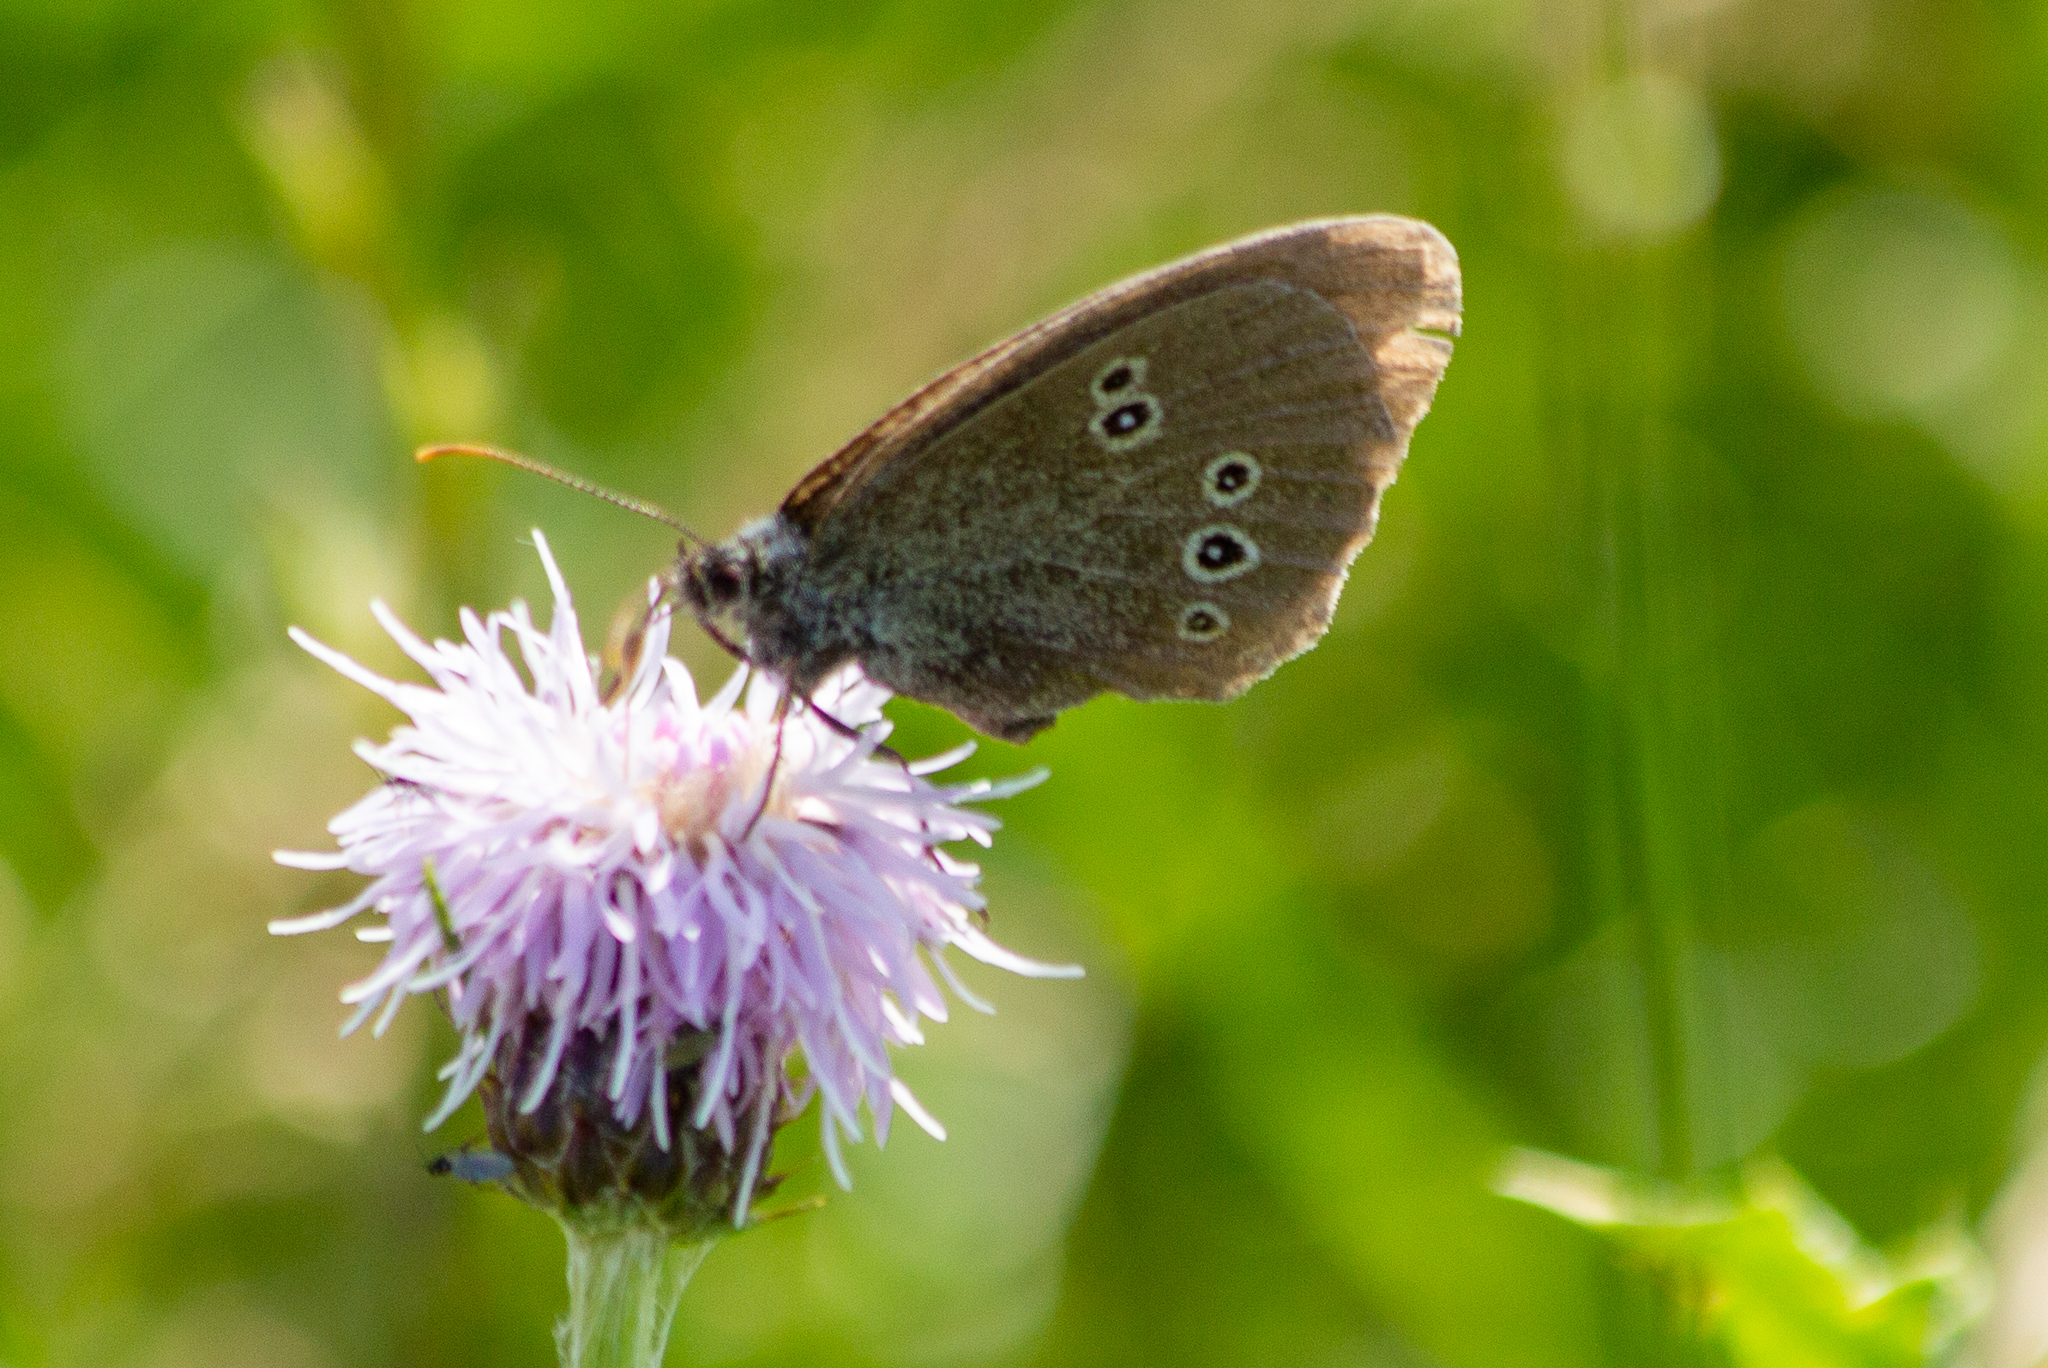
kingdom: Animalia
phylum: Arthropoda
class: Insecta
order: Lepidoptera
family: Nymphalidae
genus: Aphantopus
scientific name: Aphantopus hyperantus
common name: Ringlet
